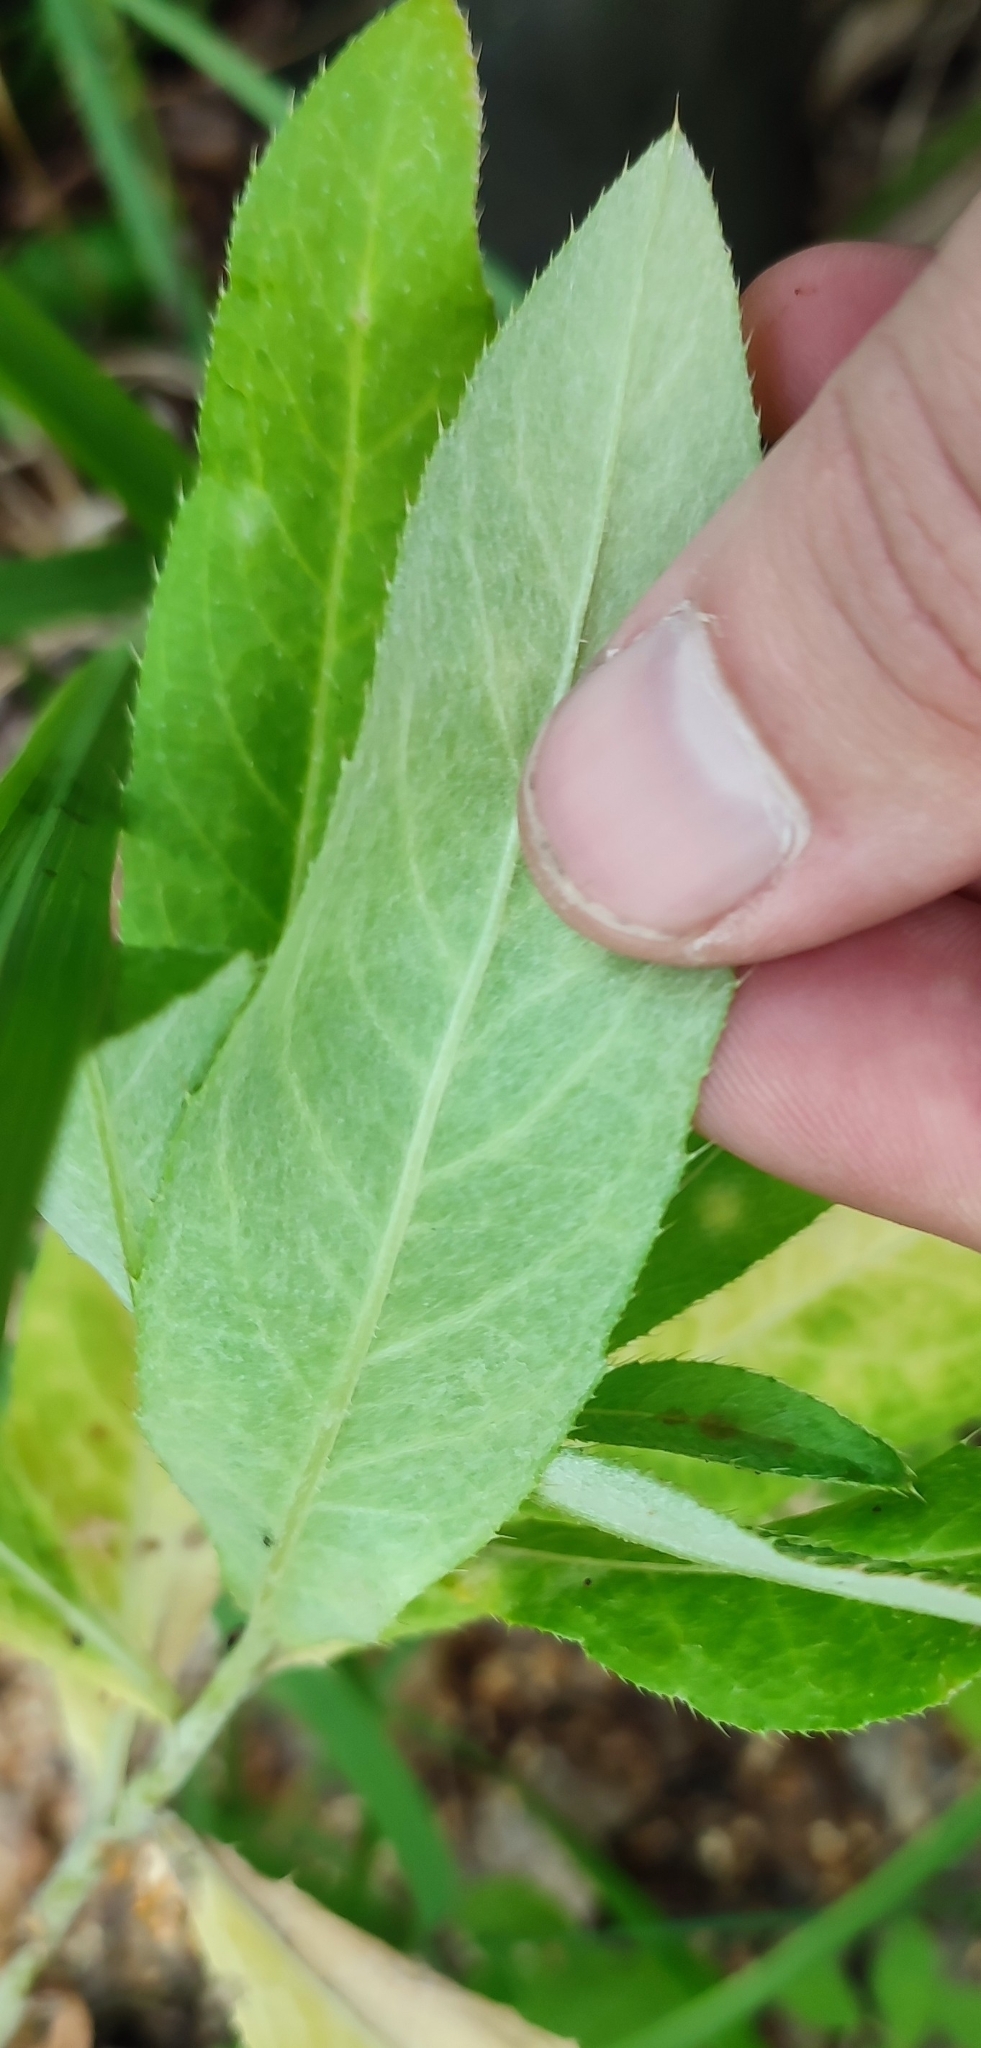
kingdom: Plantae
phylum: Tracheophyta
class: Magnoliopsida
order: Asterales
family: Asteraceae
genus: Cirsium
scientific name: Cirsium arvense
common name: Creeping thistle
